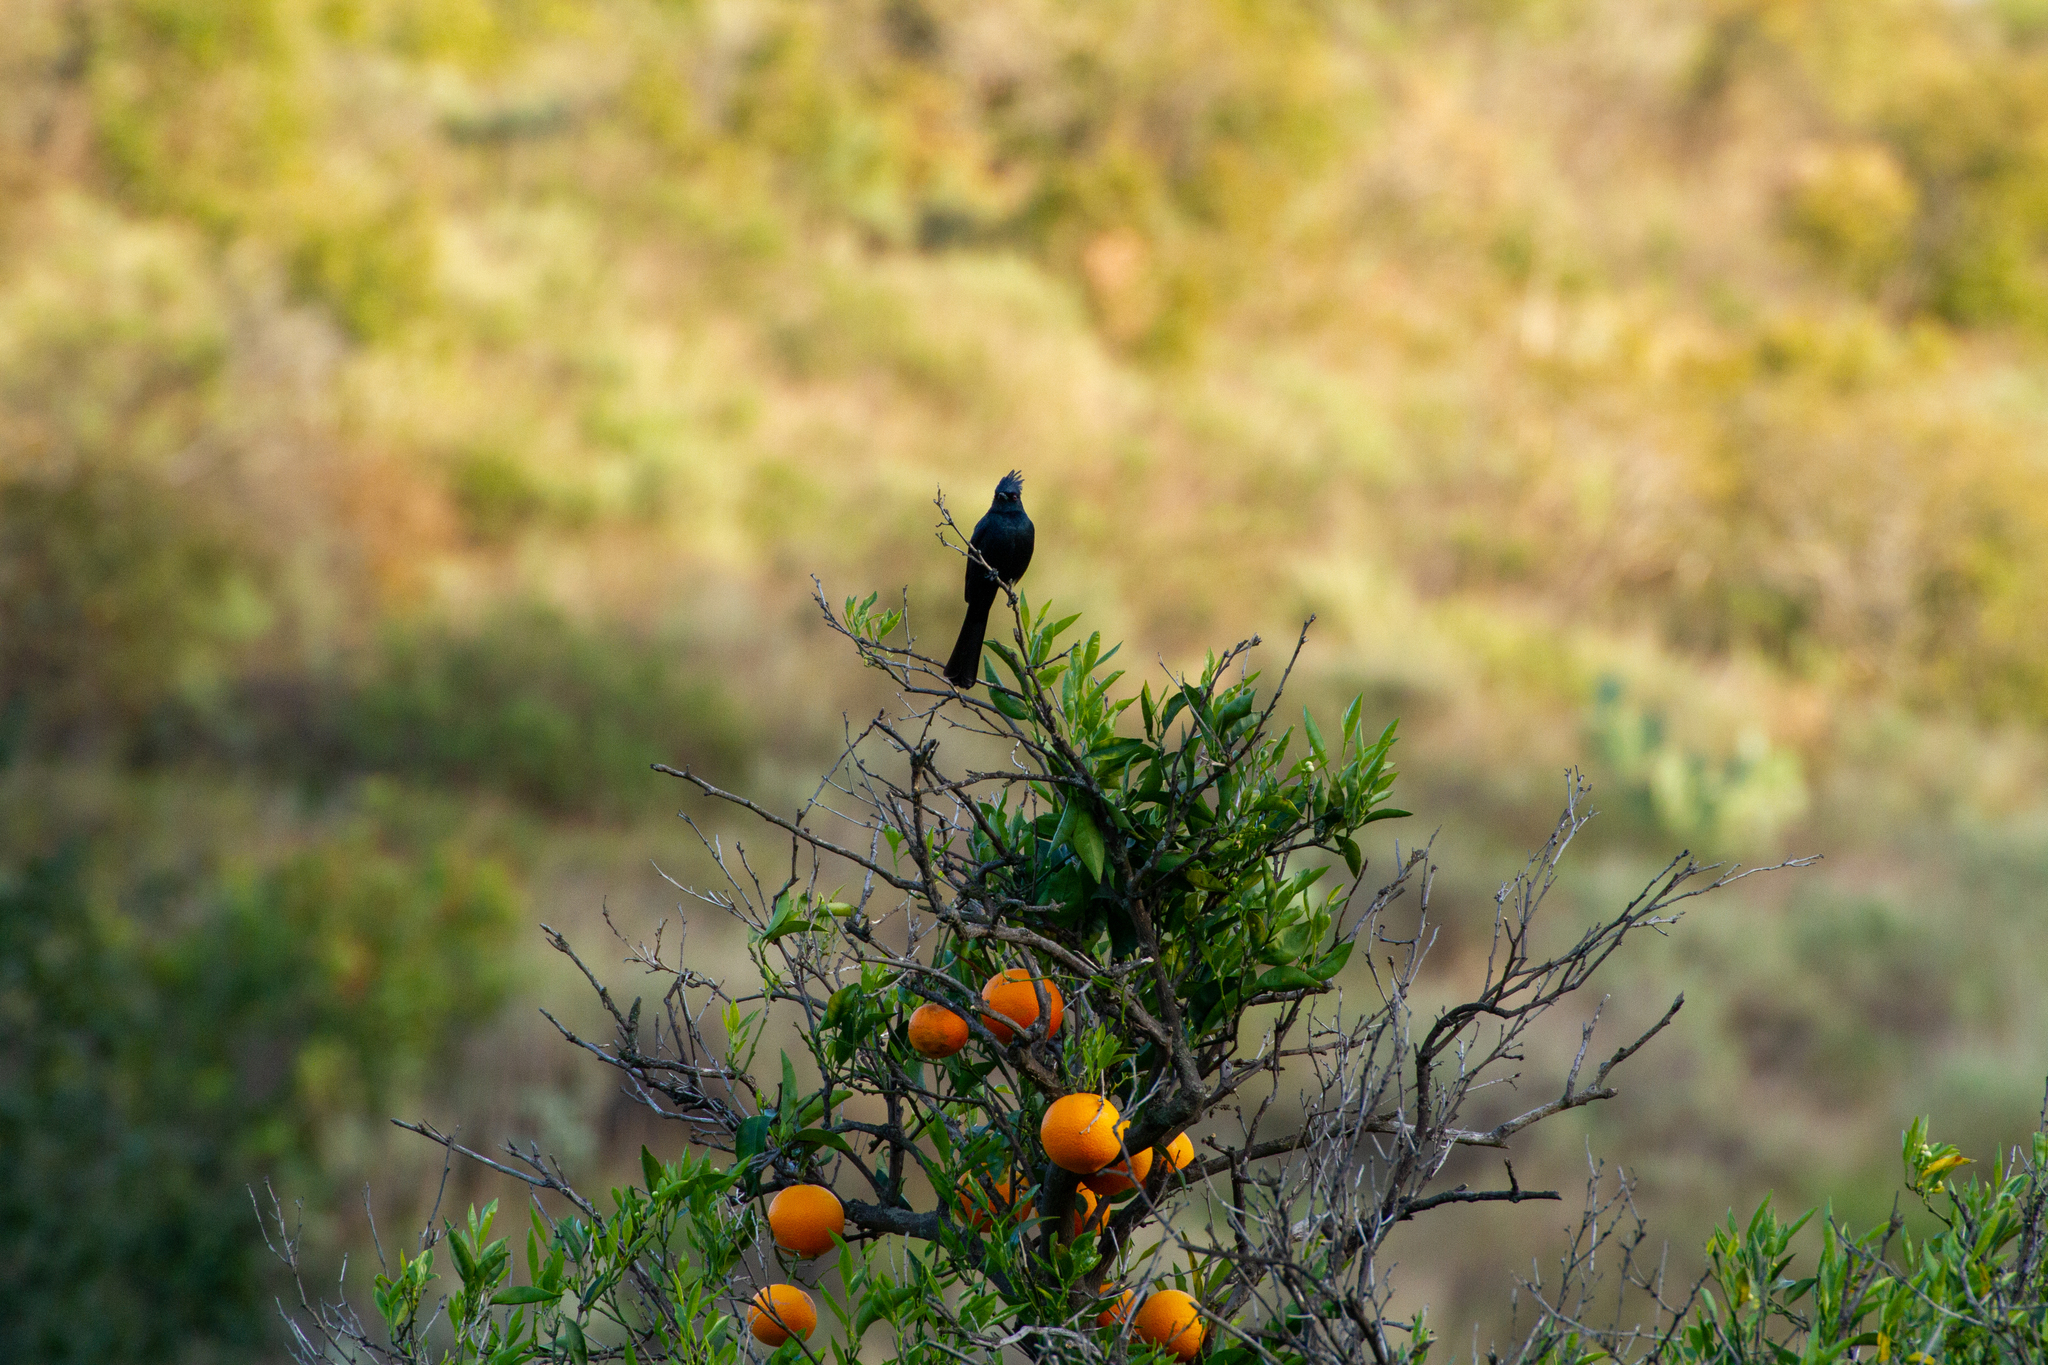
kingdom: Animalia
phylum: Chordata
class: Aves
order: Passeriformes
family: Ptilogonatidae
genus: Phainopepla
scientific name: Phainopepla nitens
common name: Phainopepla
